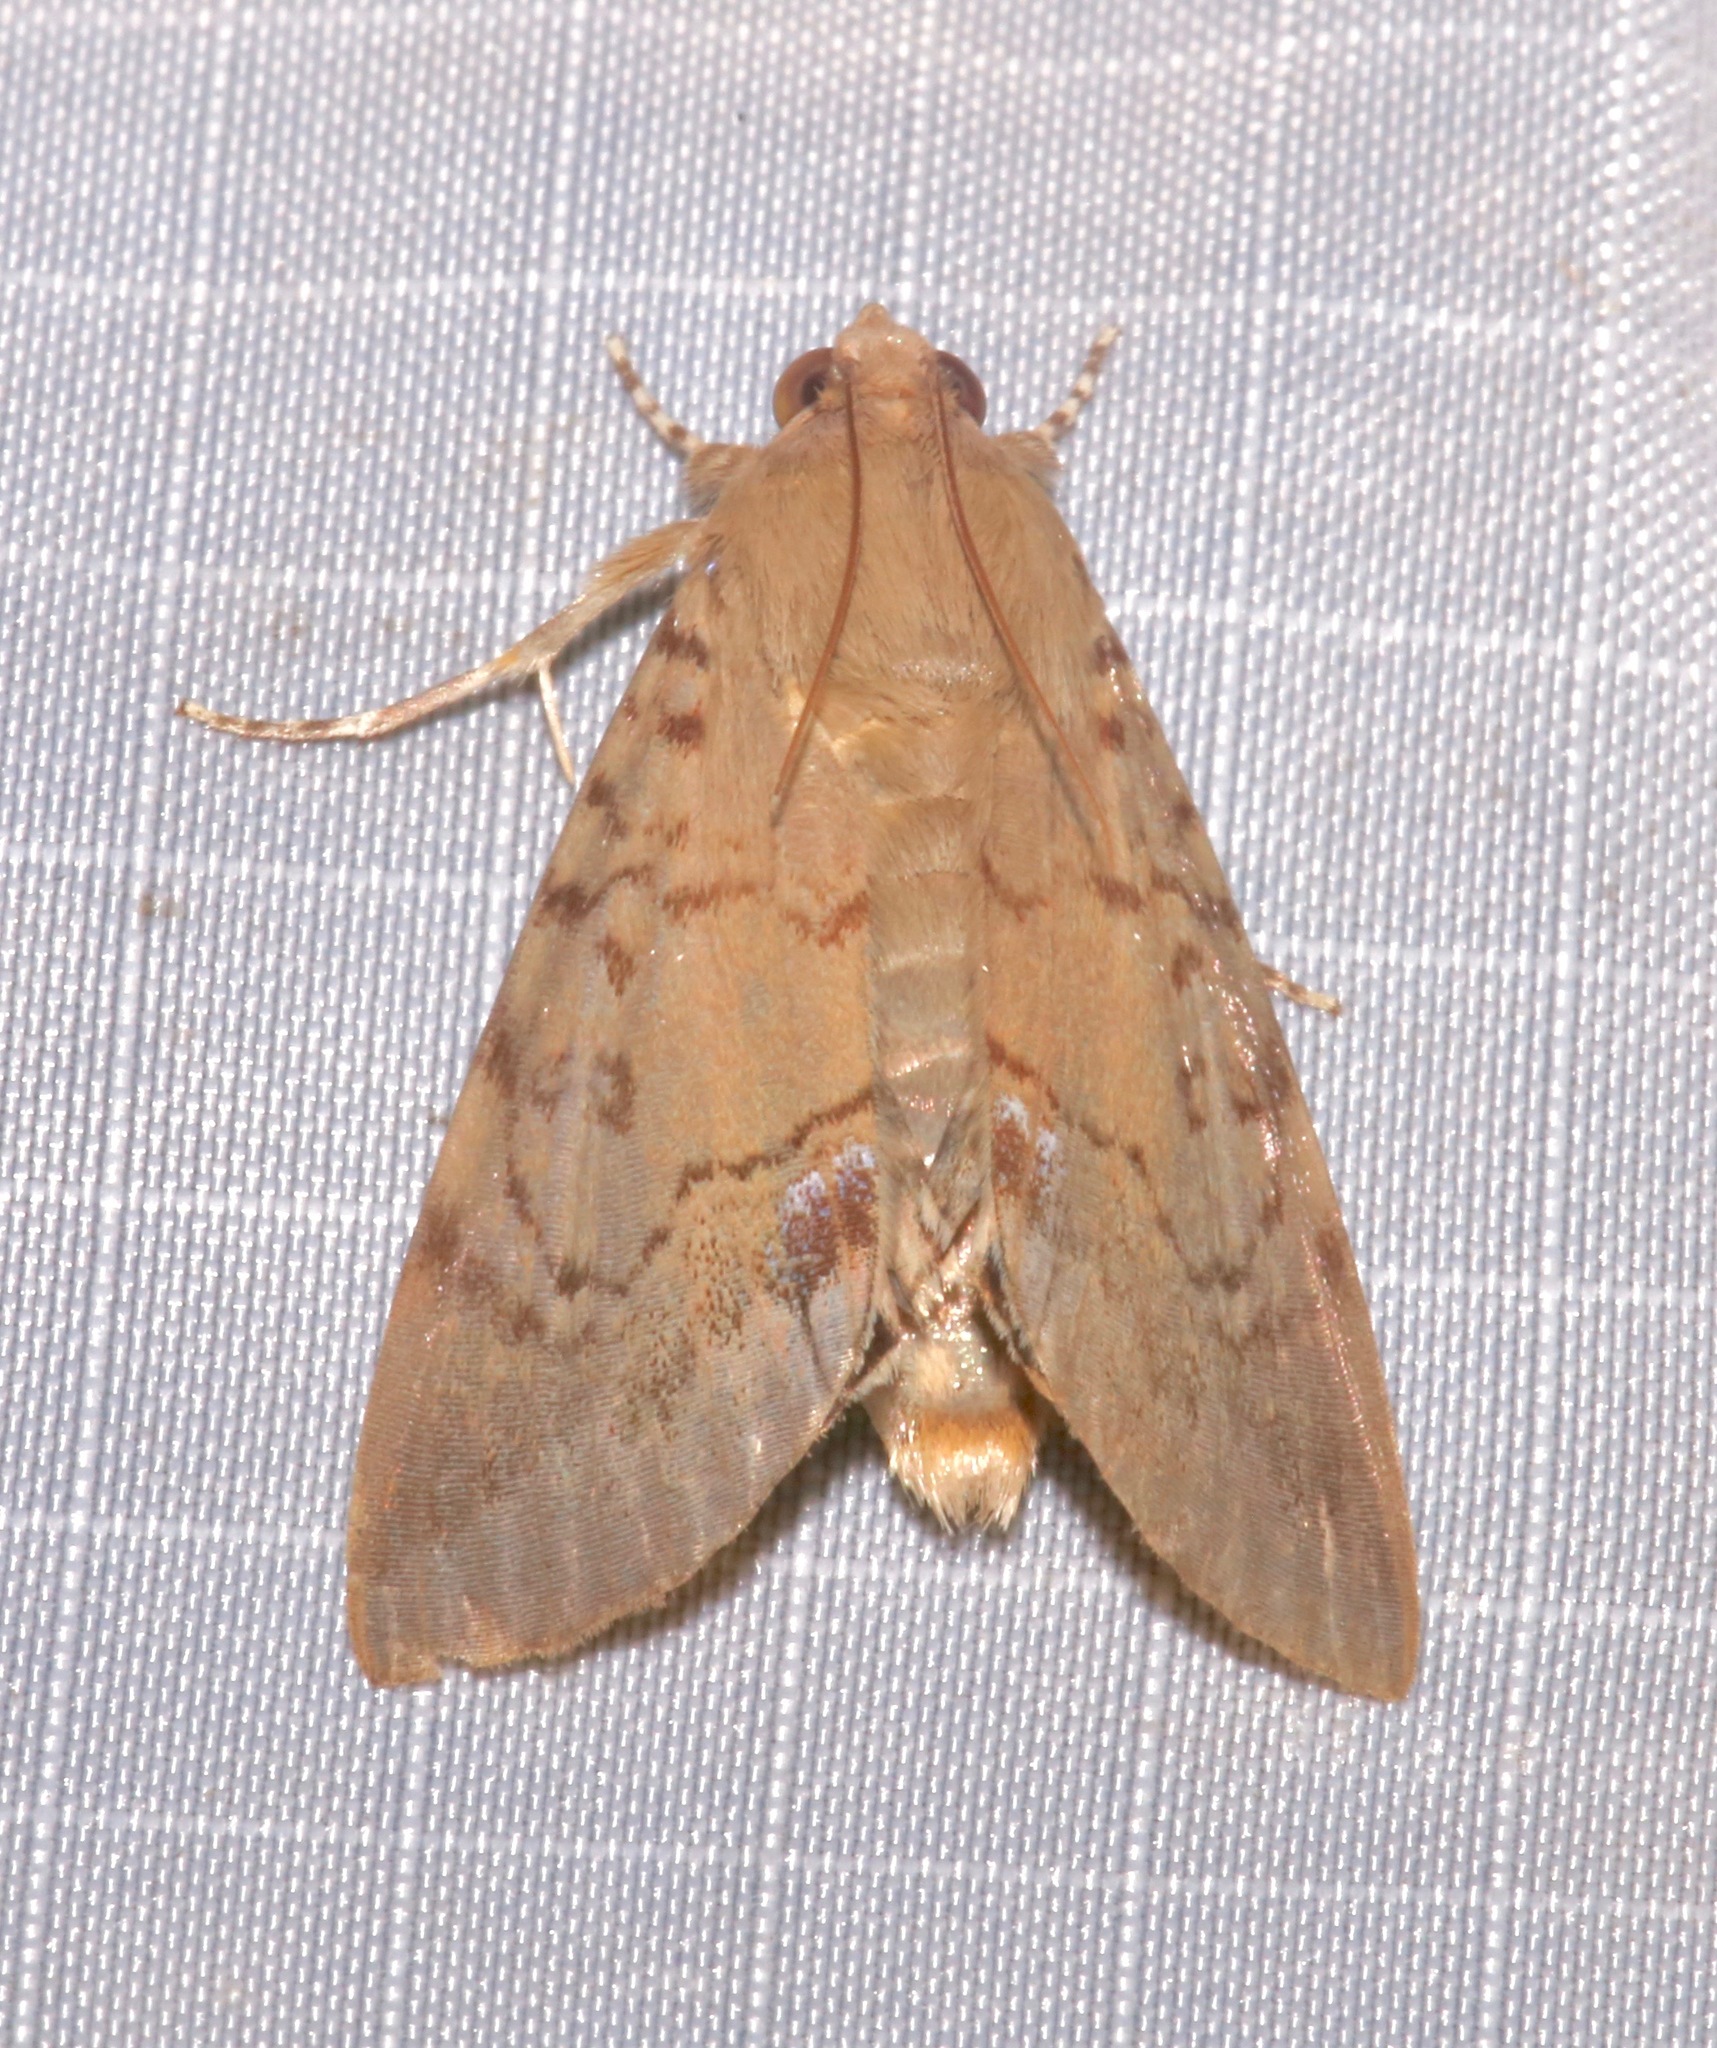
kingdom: Animalia
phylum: Arthropoda
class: Insecta
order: Lepidoptera
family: Erebidae
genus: Litoprosopus
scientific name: Litoprosopus futilis
